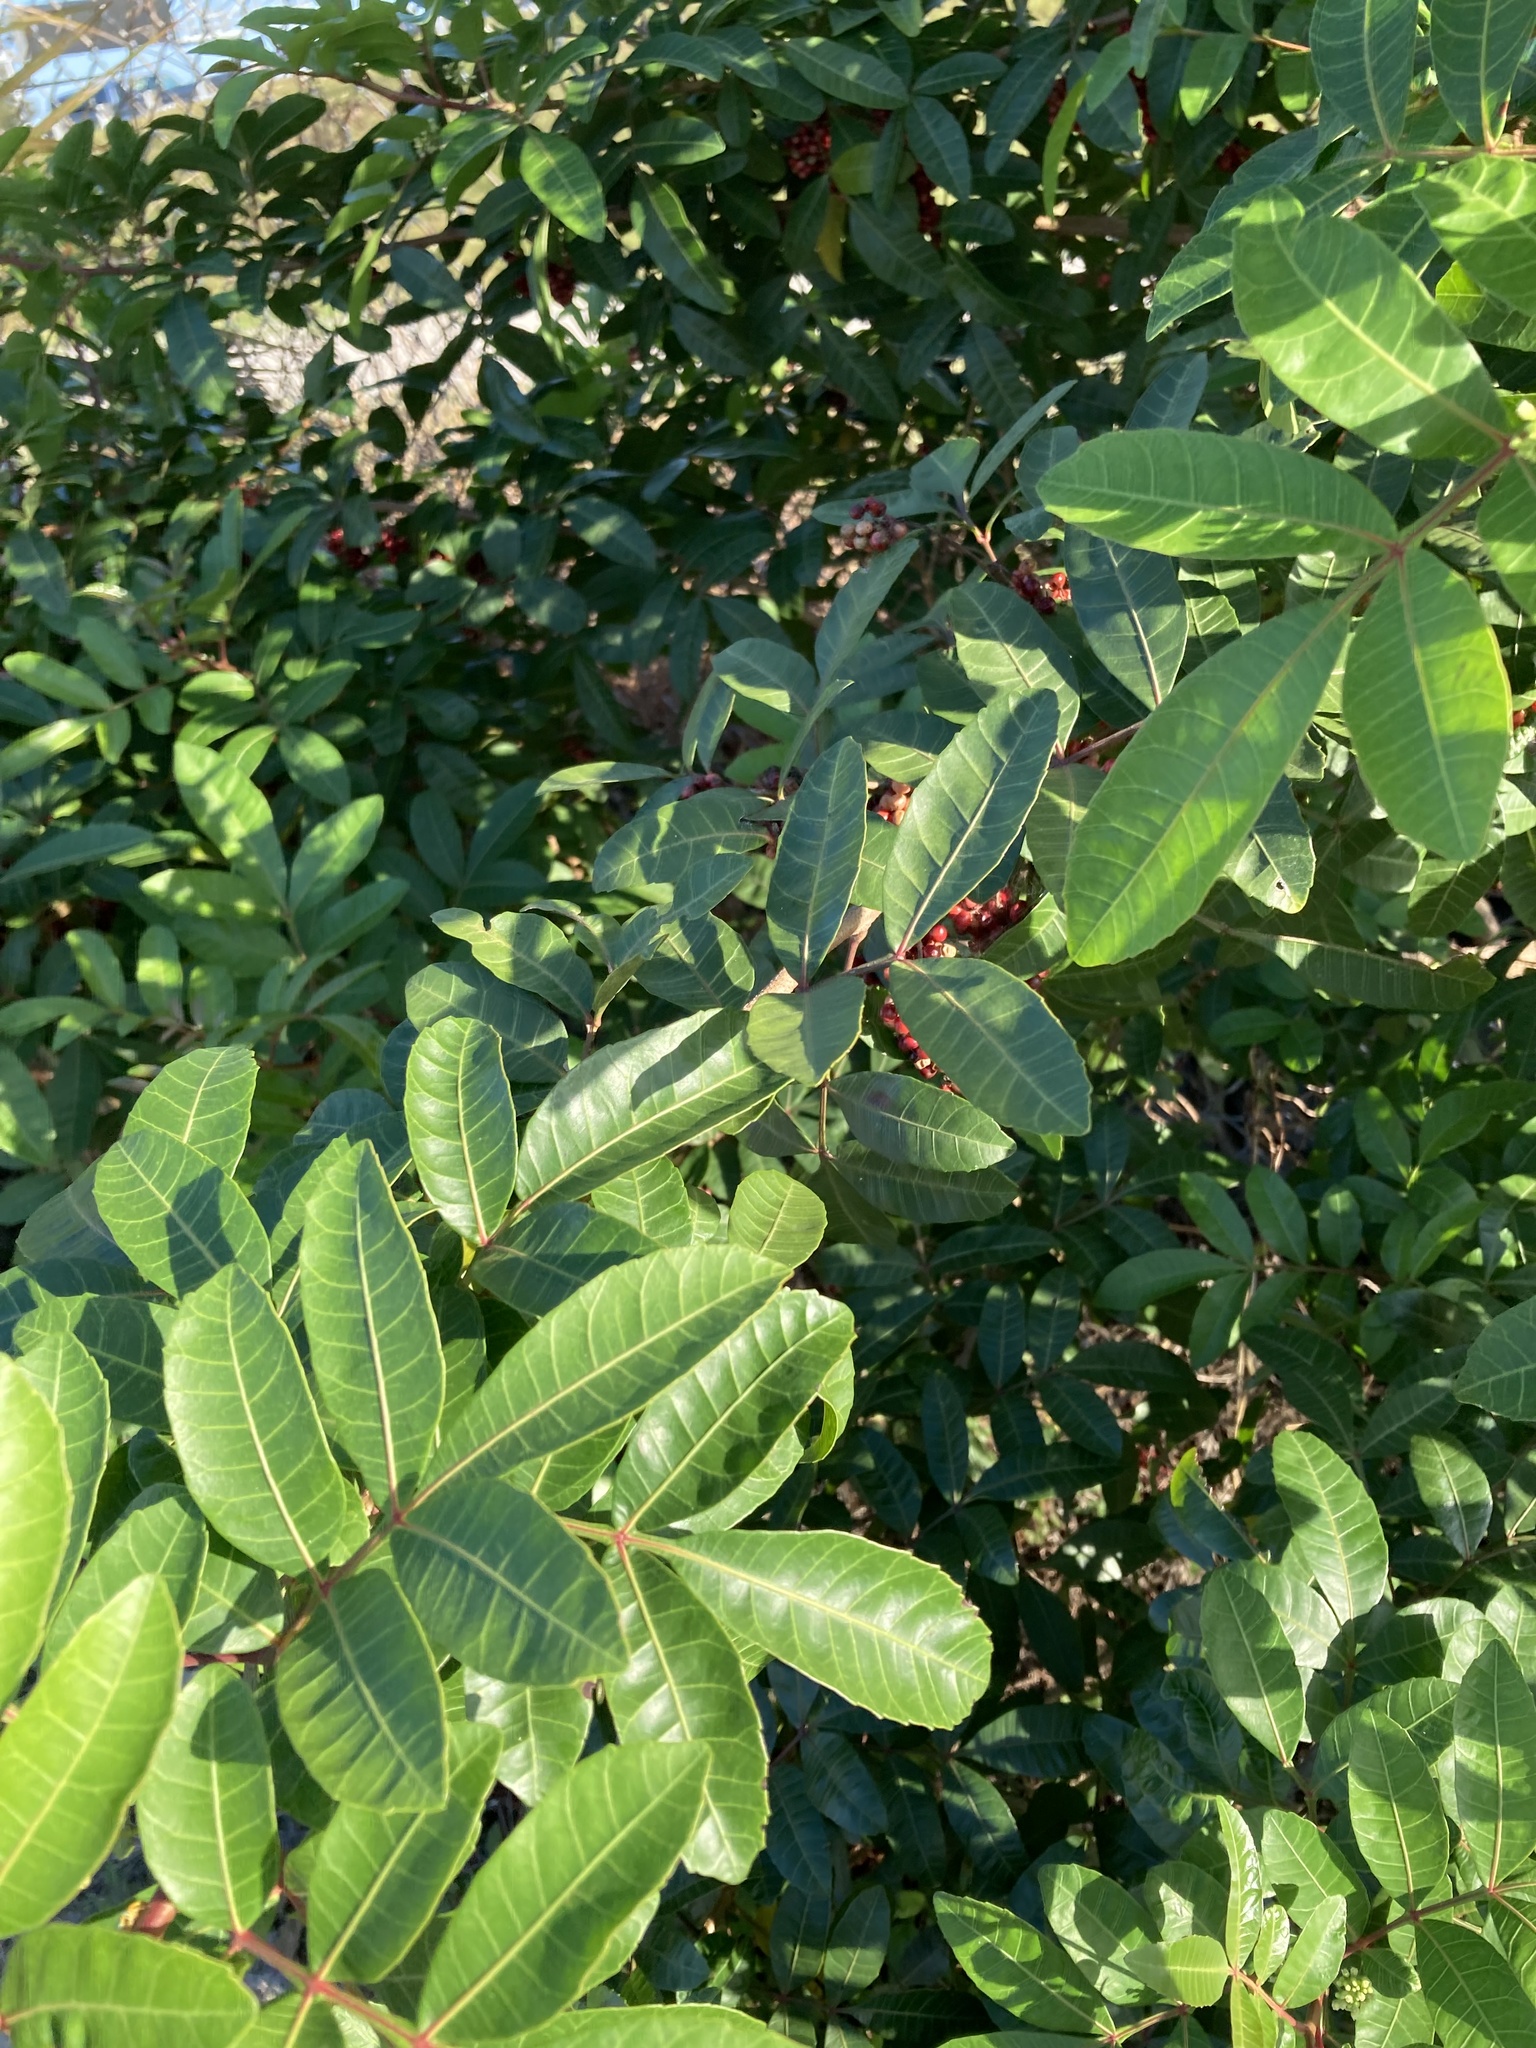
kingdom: Plantae
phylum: Tracheophyta
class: Magnoliopsida
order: Sapindales
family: Anacardiaceae
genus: Schinus
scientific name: Schinus terebinthifolia
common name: Brazilian peppertree
